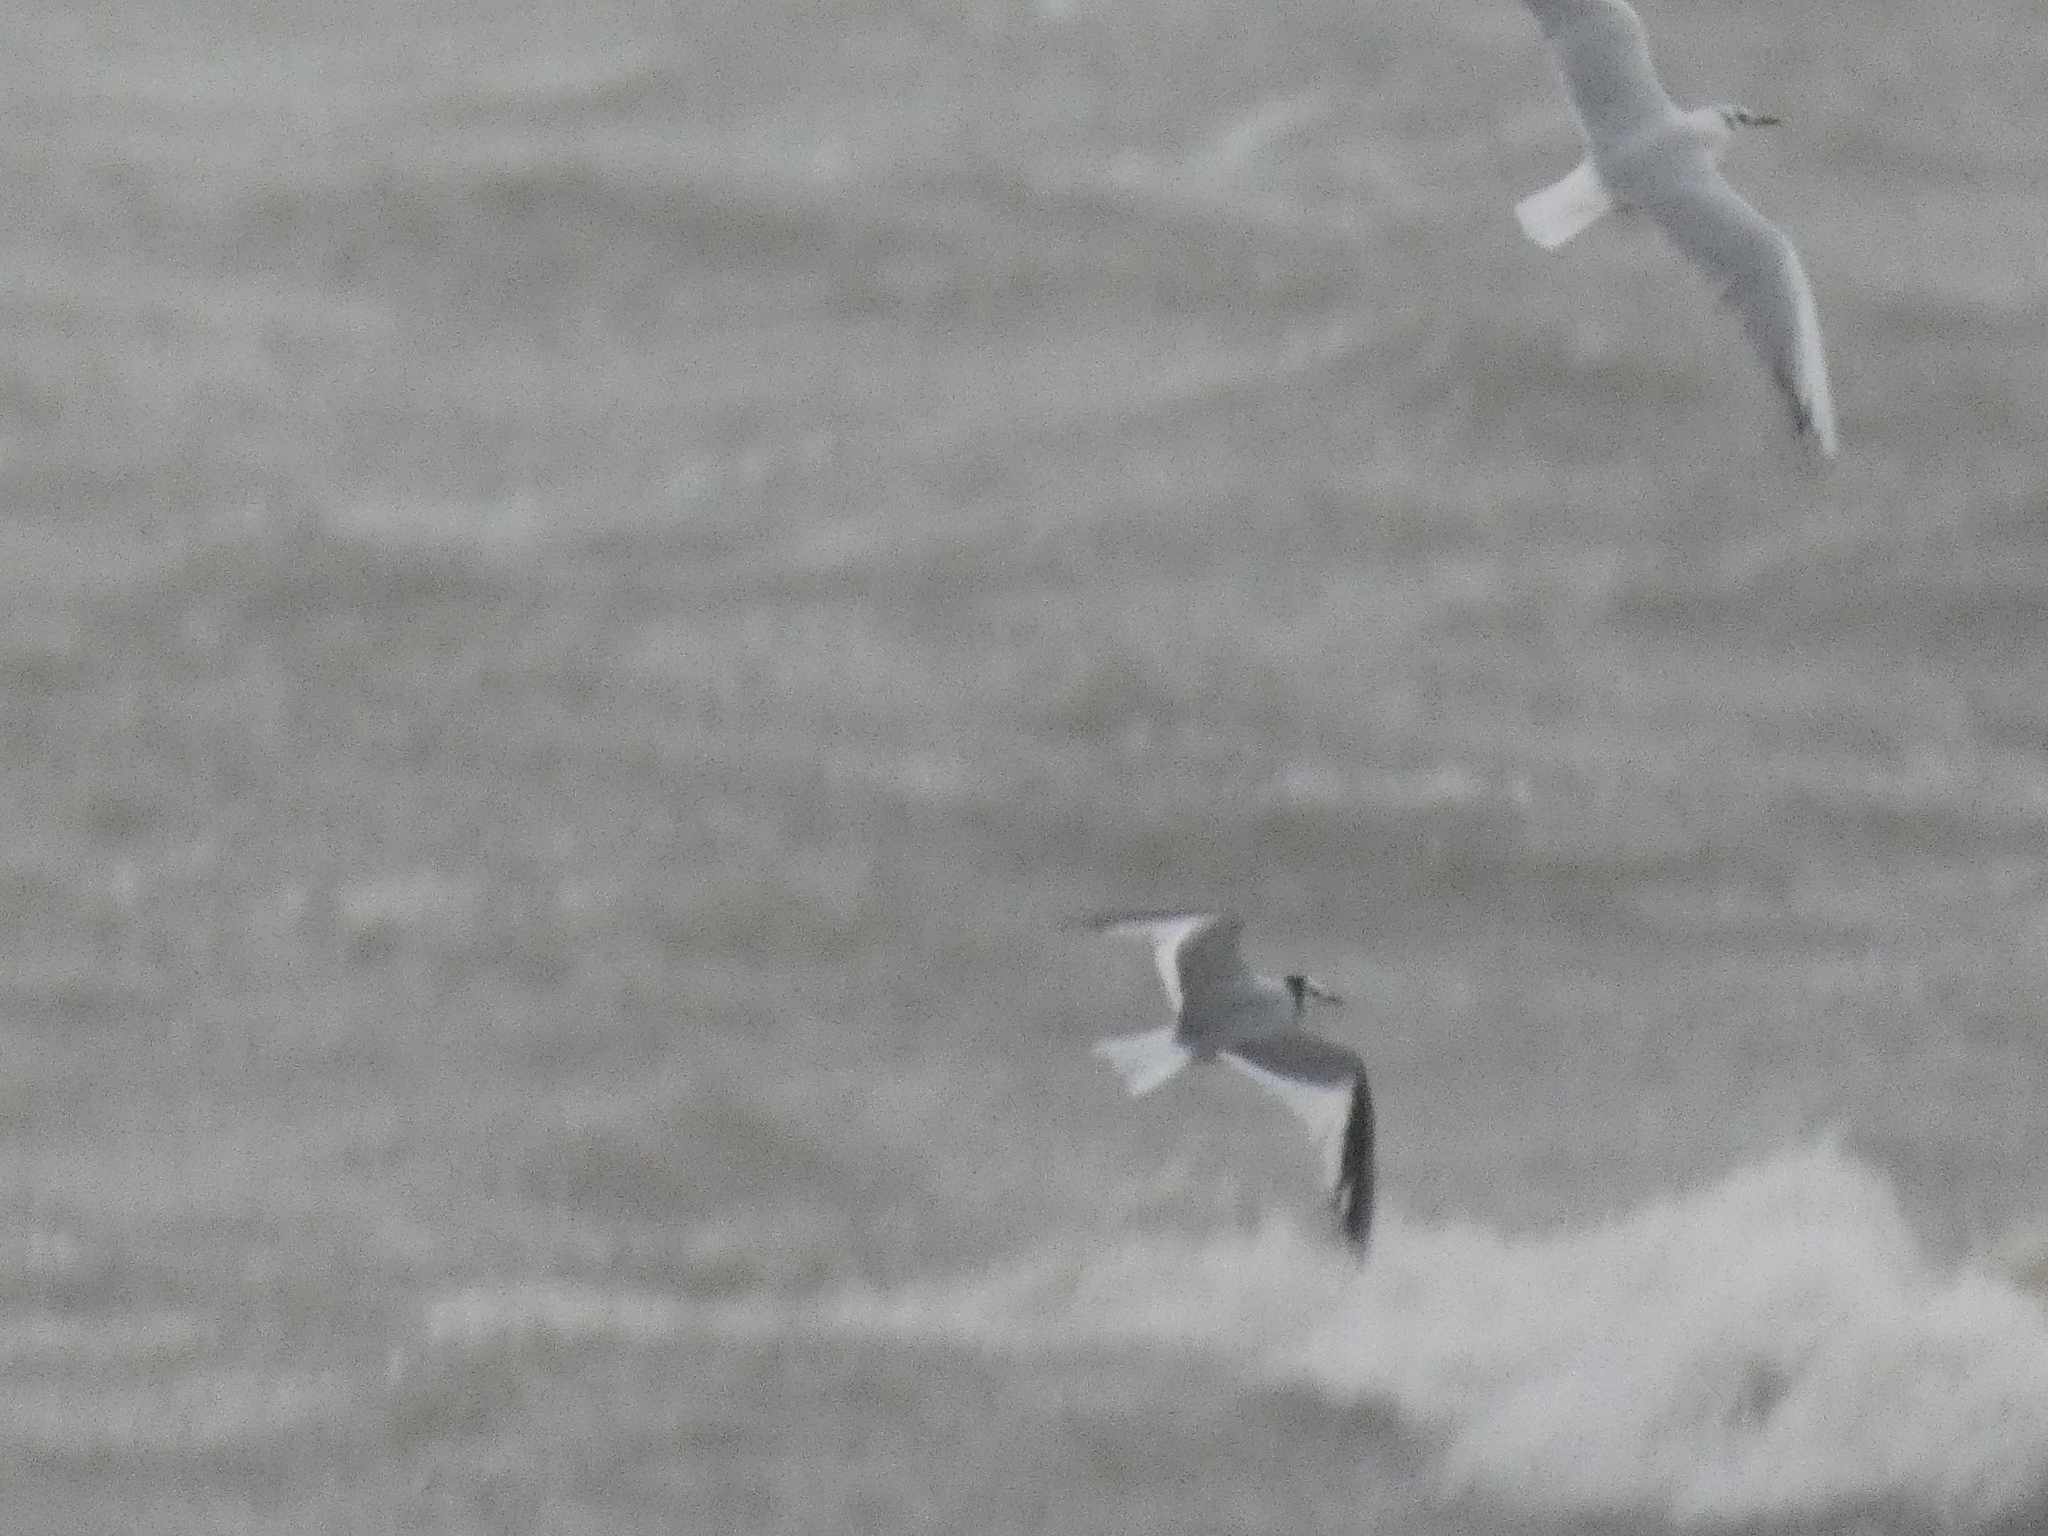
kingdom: Animalia
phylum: Chordata
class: Aves
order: Charadriiformes
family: Laridae
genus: Xema
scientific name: Xema sabini
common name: Sabine's gull
